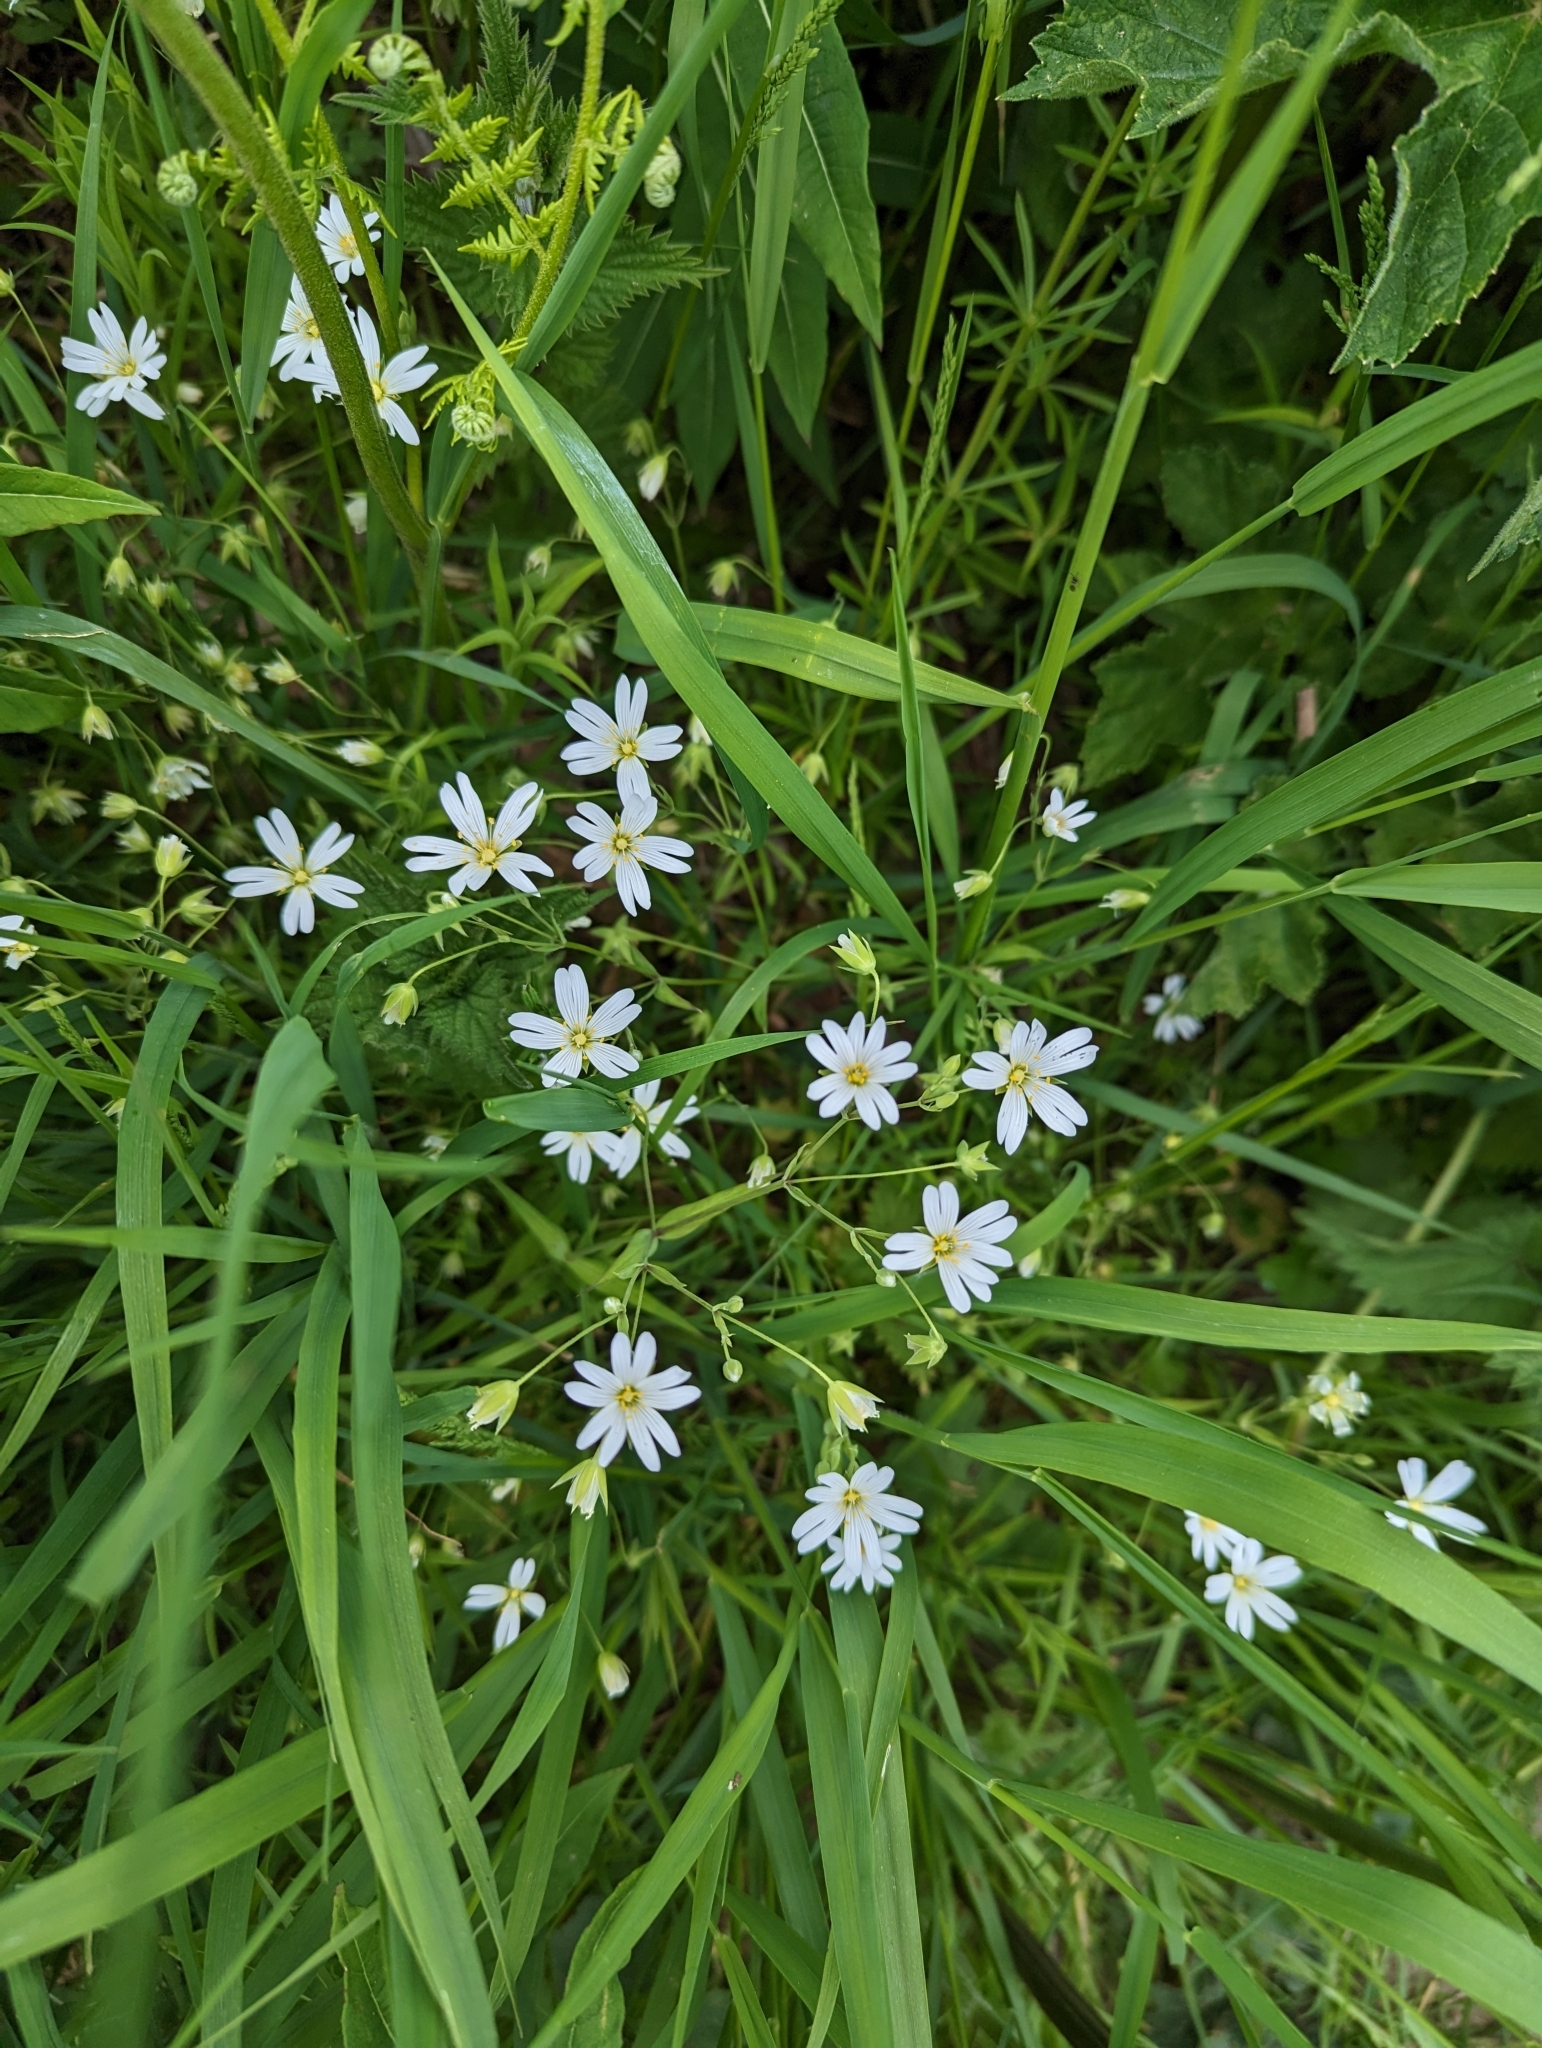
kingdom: Plantae
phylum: Tracheophyta
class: Magnoliopsida
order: Caryophyllales
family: Caryophyllaceae
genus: Rabelera
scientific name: Rabelera holostea
